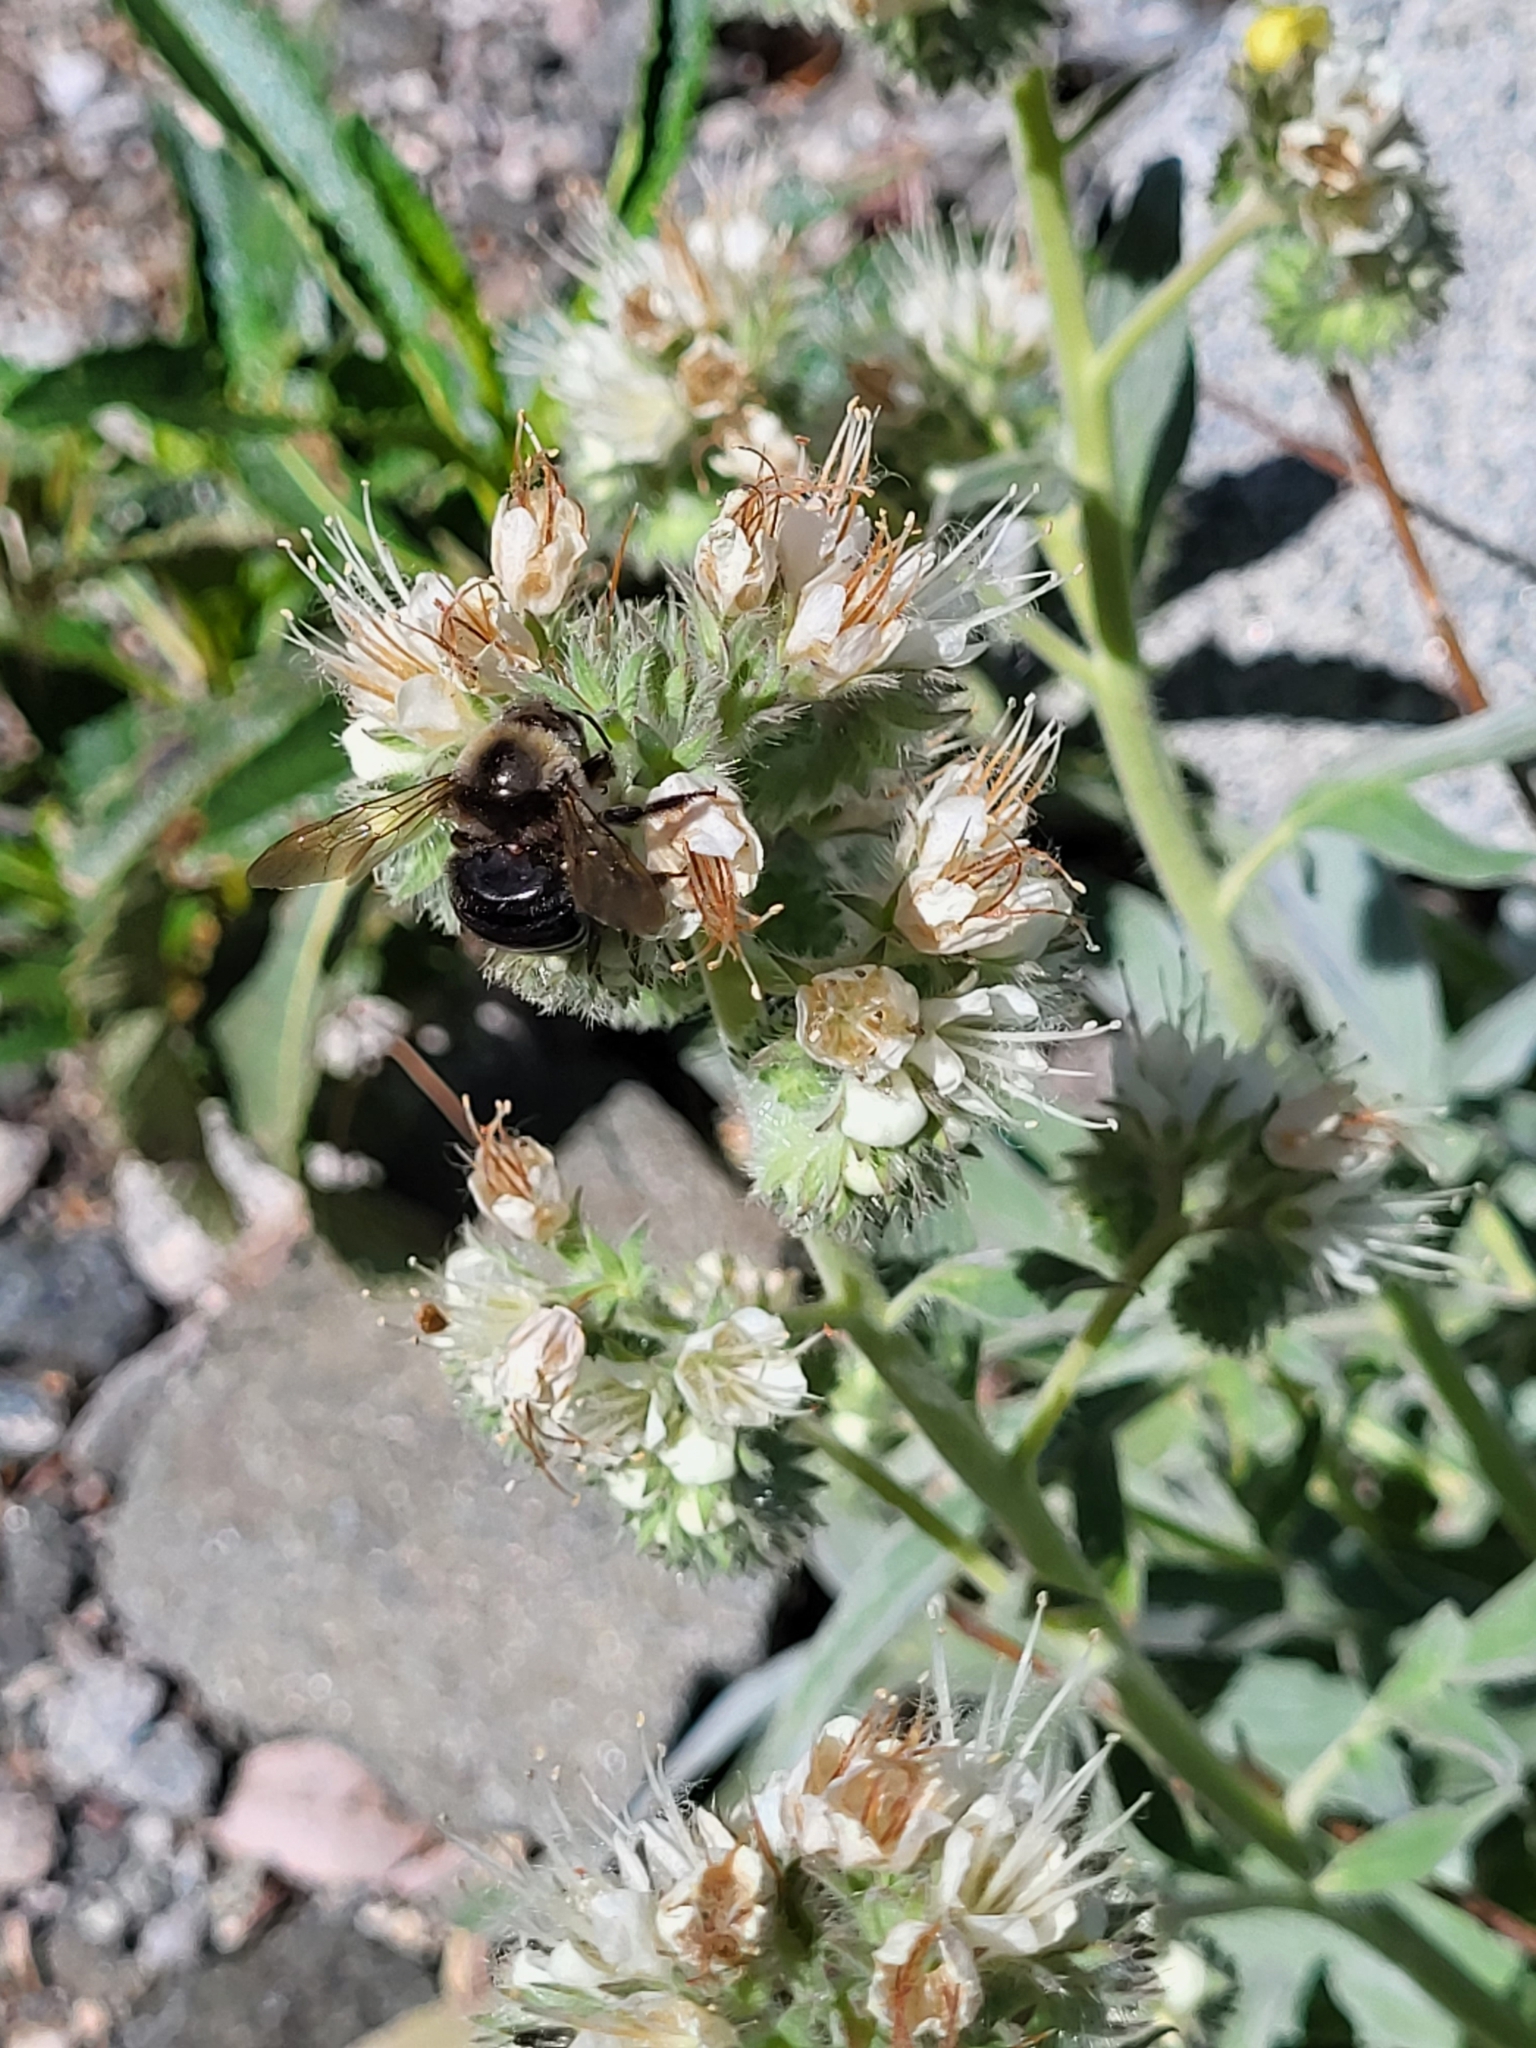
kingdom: Animalia
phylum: Arthropoda
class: Insecta
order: Hymenoptera
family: Apidae
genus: Xylocopa
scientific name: Xylocopa tabaniformis
